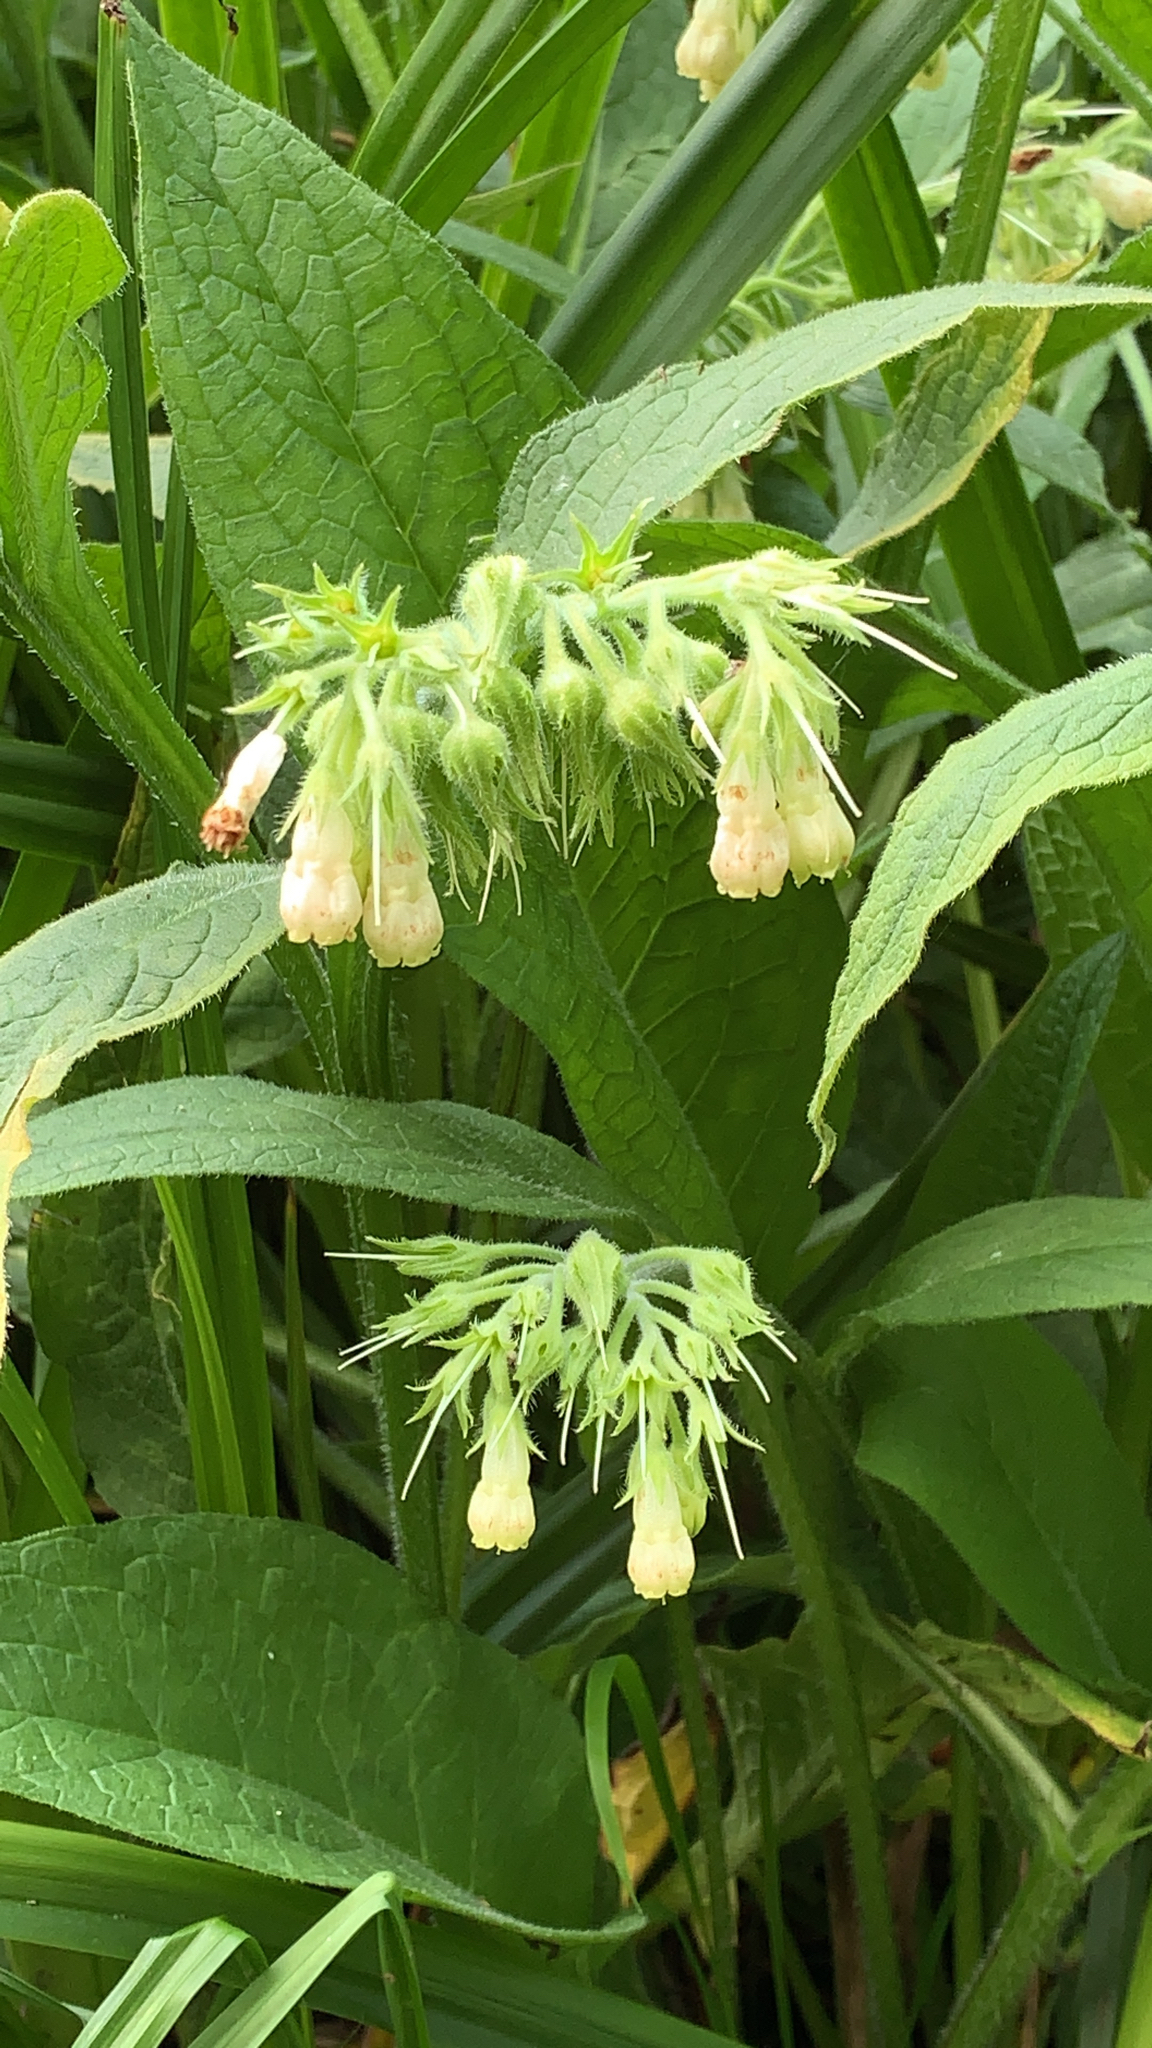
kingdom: Plantae
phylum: Tracheophyta
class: Magnoliopsida
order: Boraginales
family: Boraginaceae
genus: Symphytum
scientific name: Symphytum officinale
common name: Common comfrey
